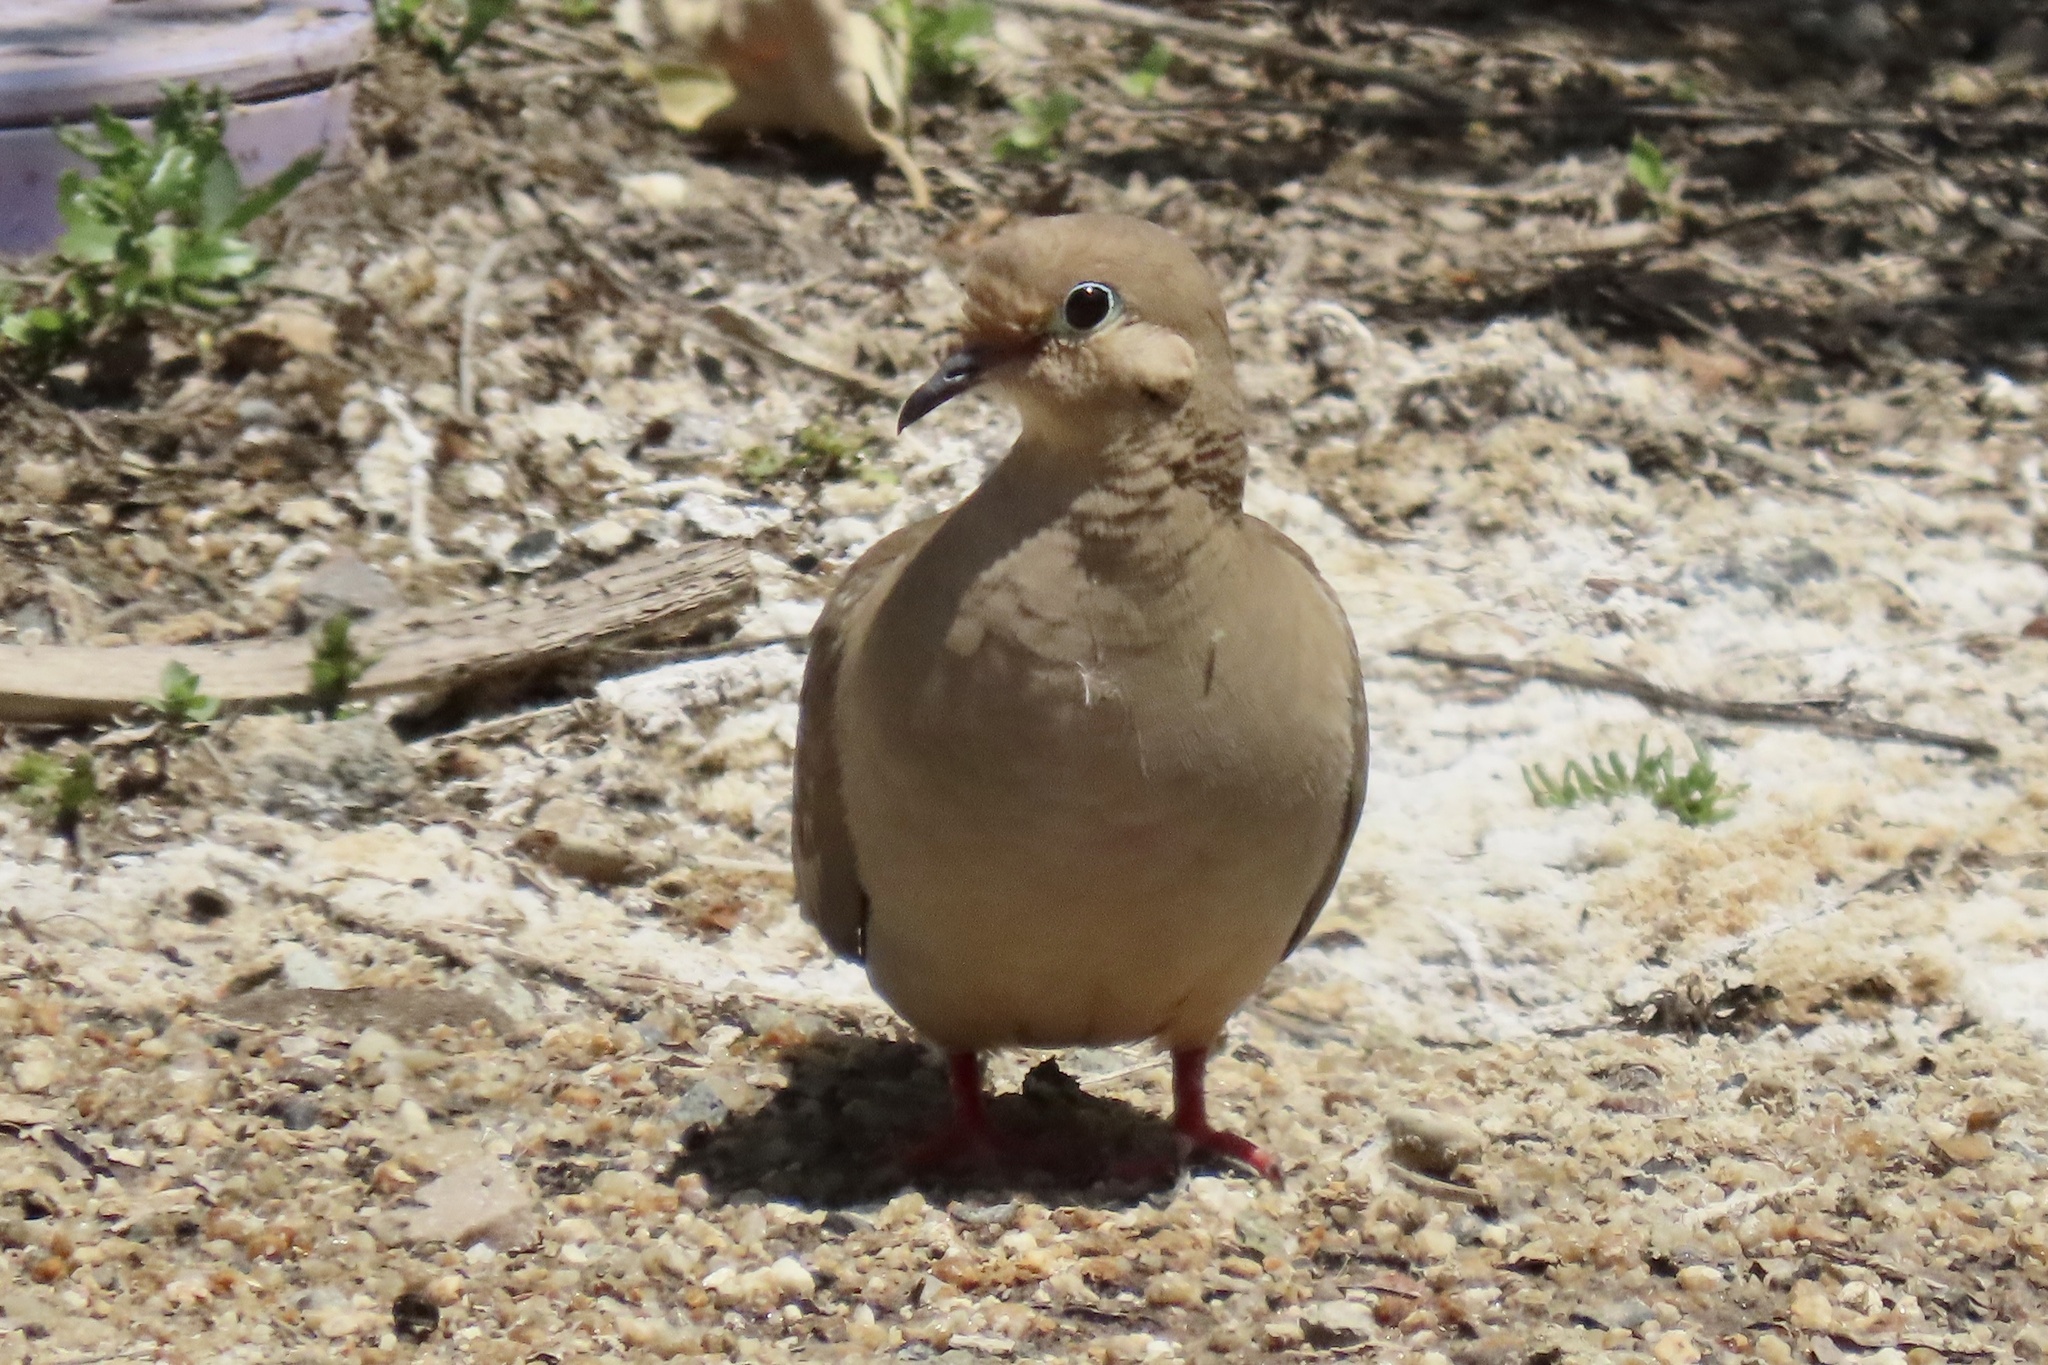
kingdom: Animalia
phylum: Chordata
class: Aves
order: Columbiformes
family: Columbidae
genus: Zenaida
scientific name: Zenaida macroura
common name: Mourning dove
